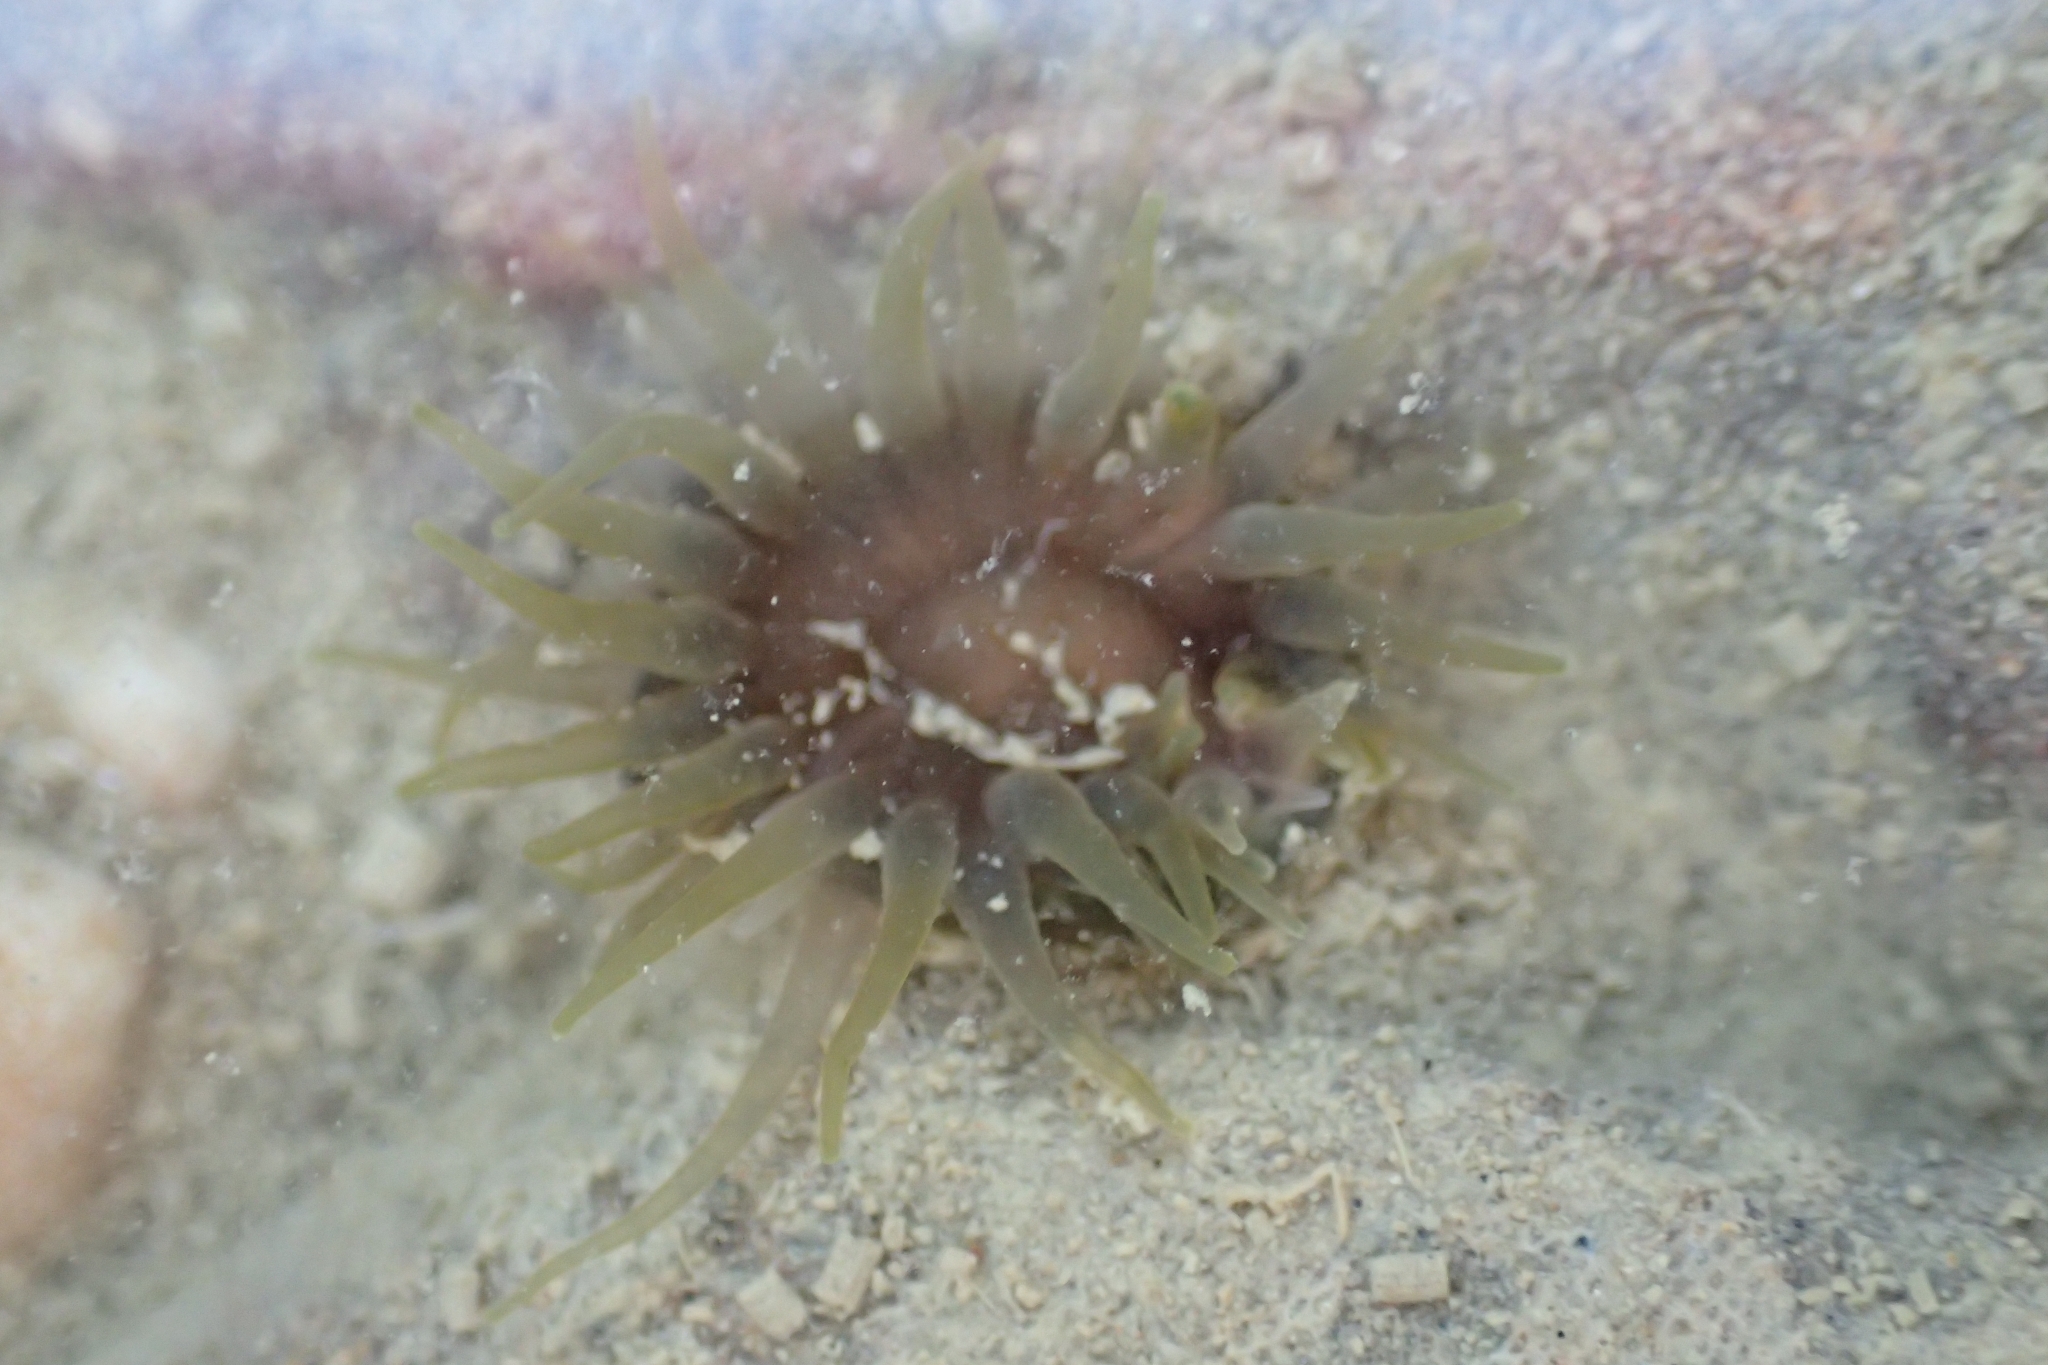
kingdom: Animalia
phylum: Cnidaria
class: Anthozoa
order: Actiniaria
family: Actiniidae
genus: Isactinia
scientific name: Isactinia olivacea
